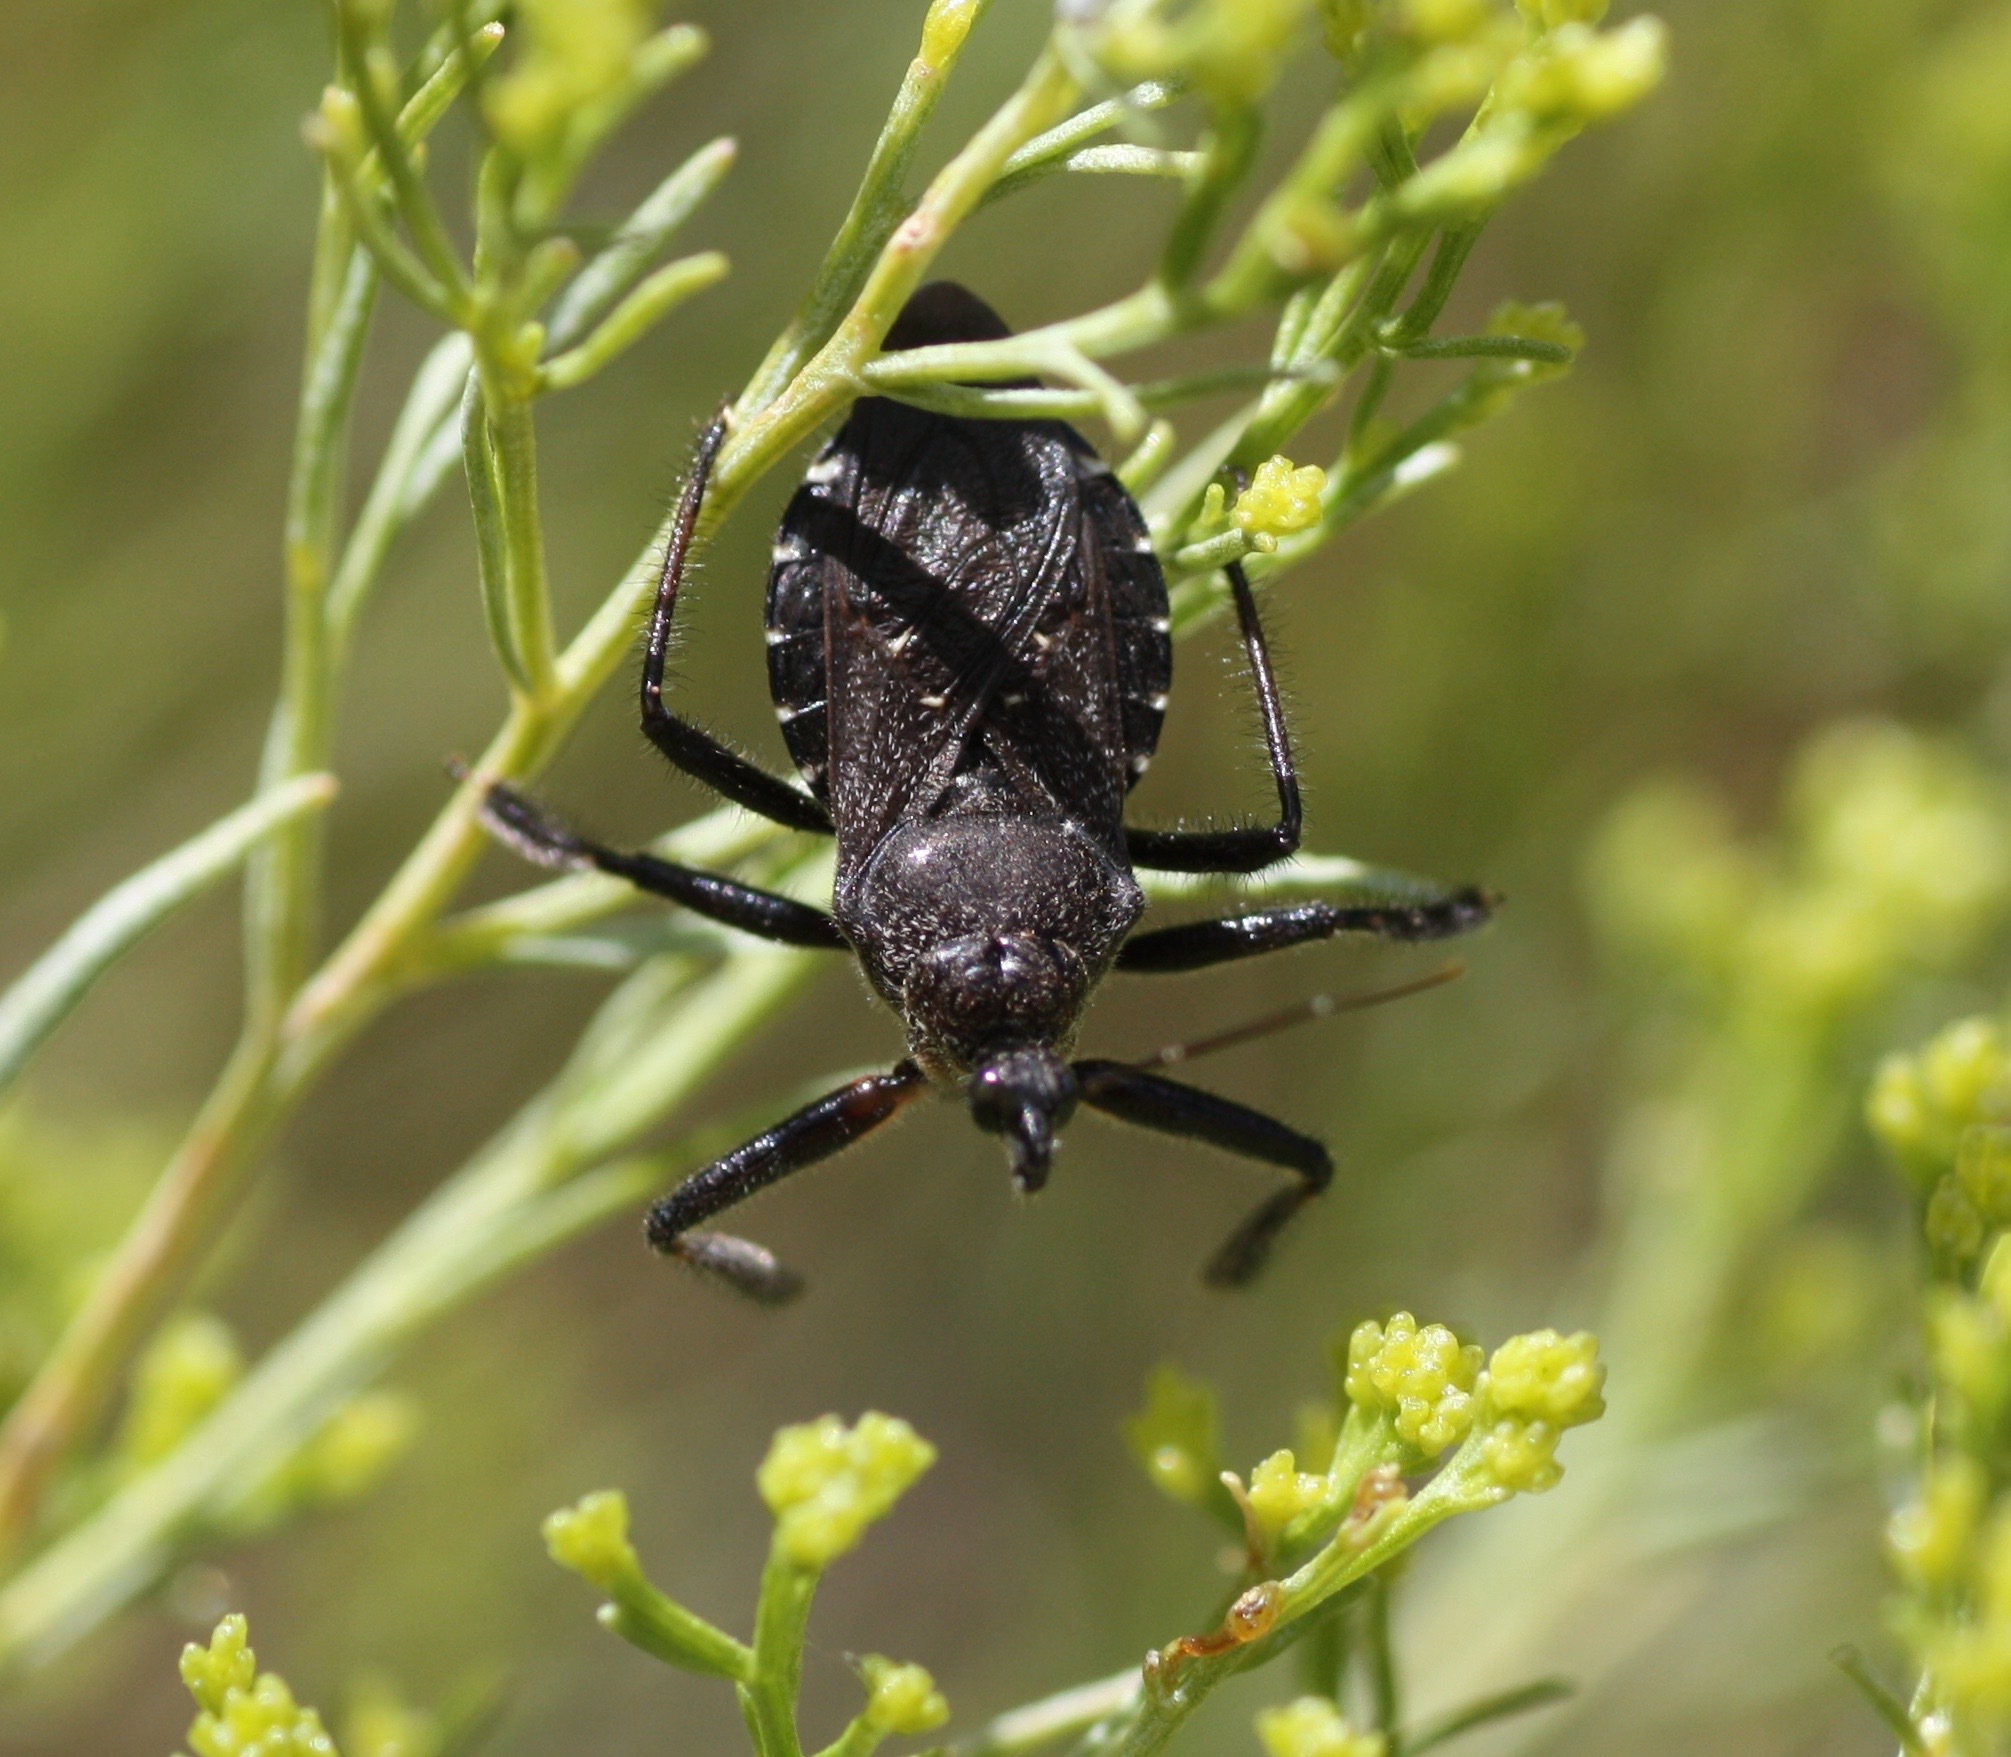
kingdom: Animalia
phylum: Arthropoda
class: Insecta
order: Hemiptera
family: Reduviidae
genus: Apiomerus
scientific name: Apiomerus longispinis
